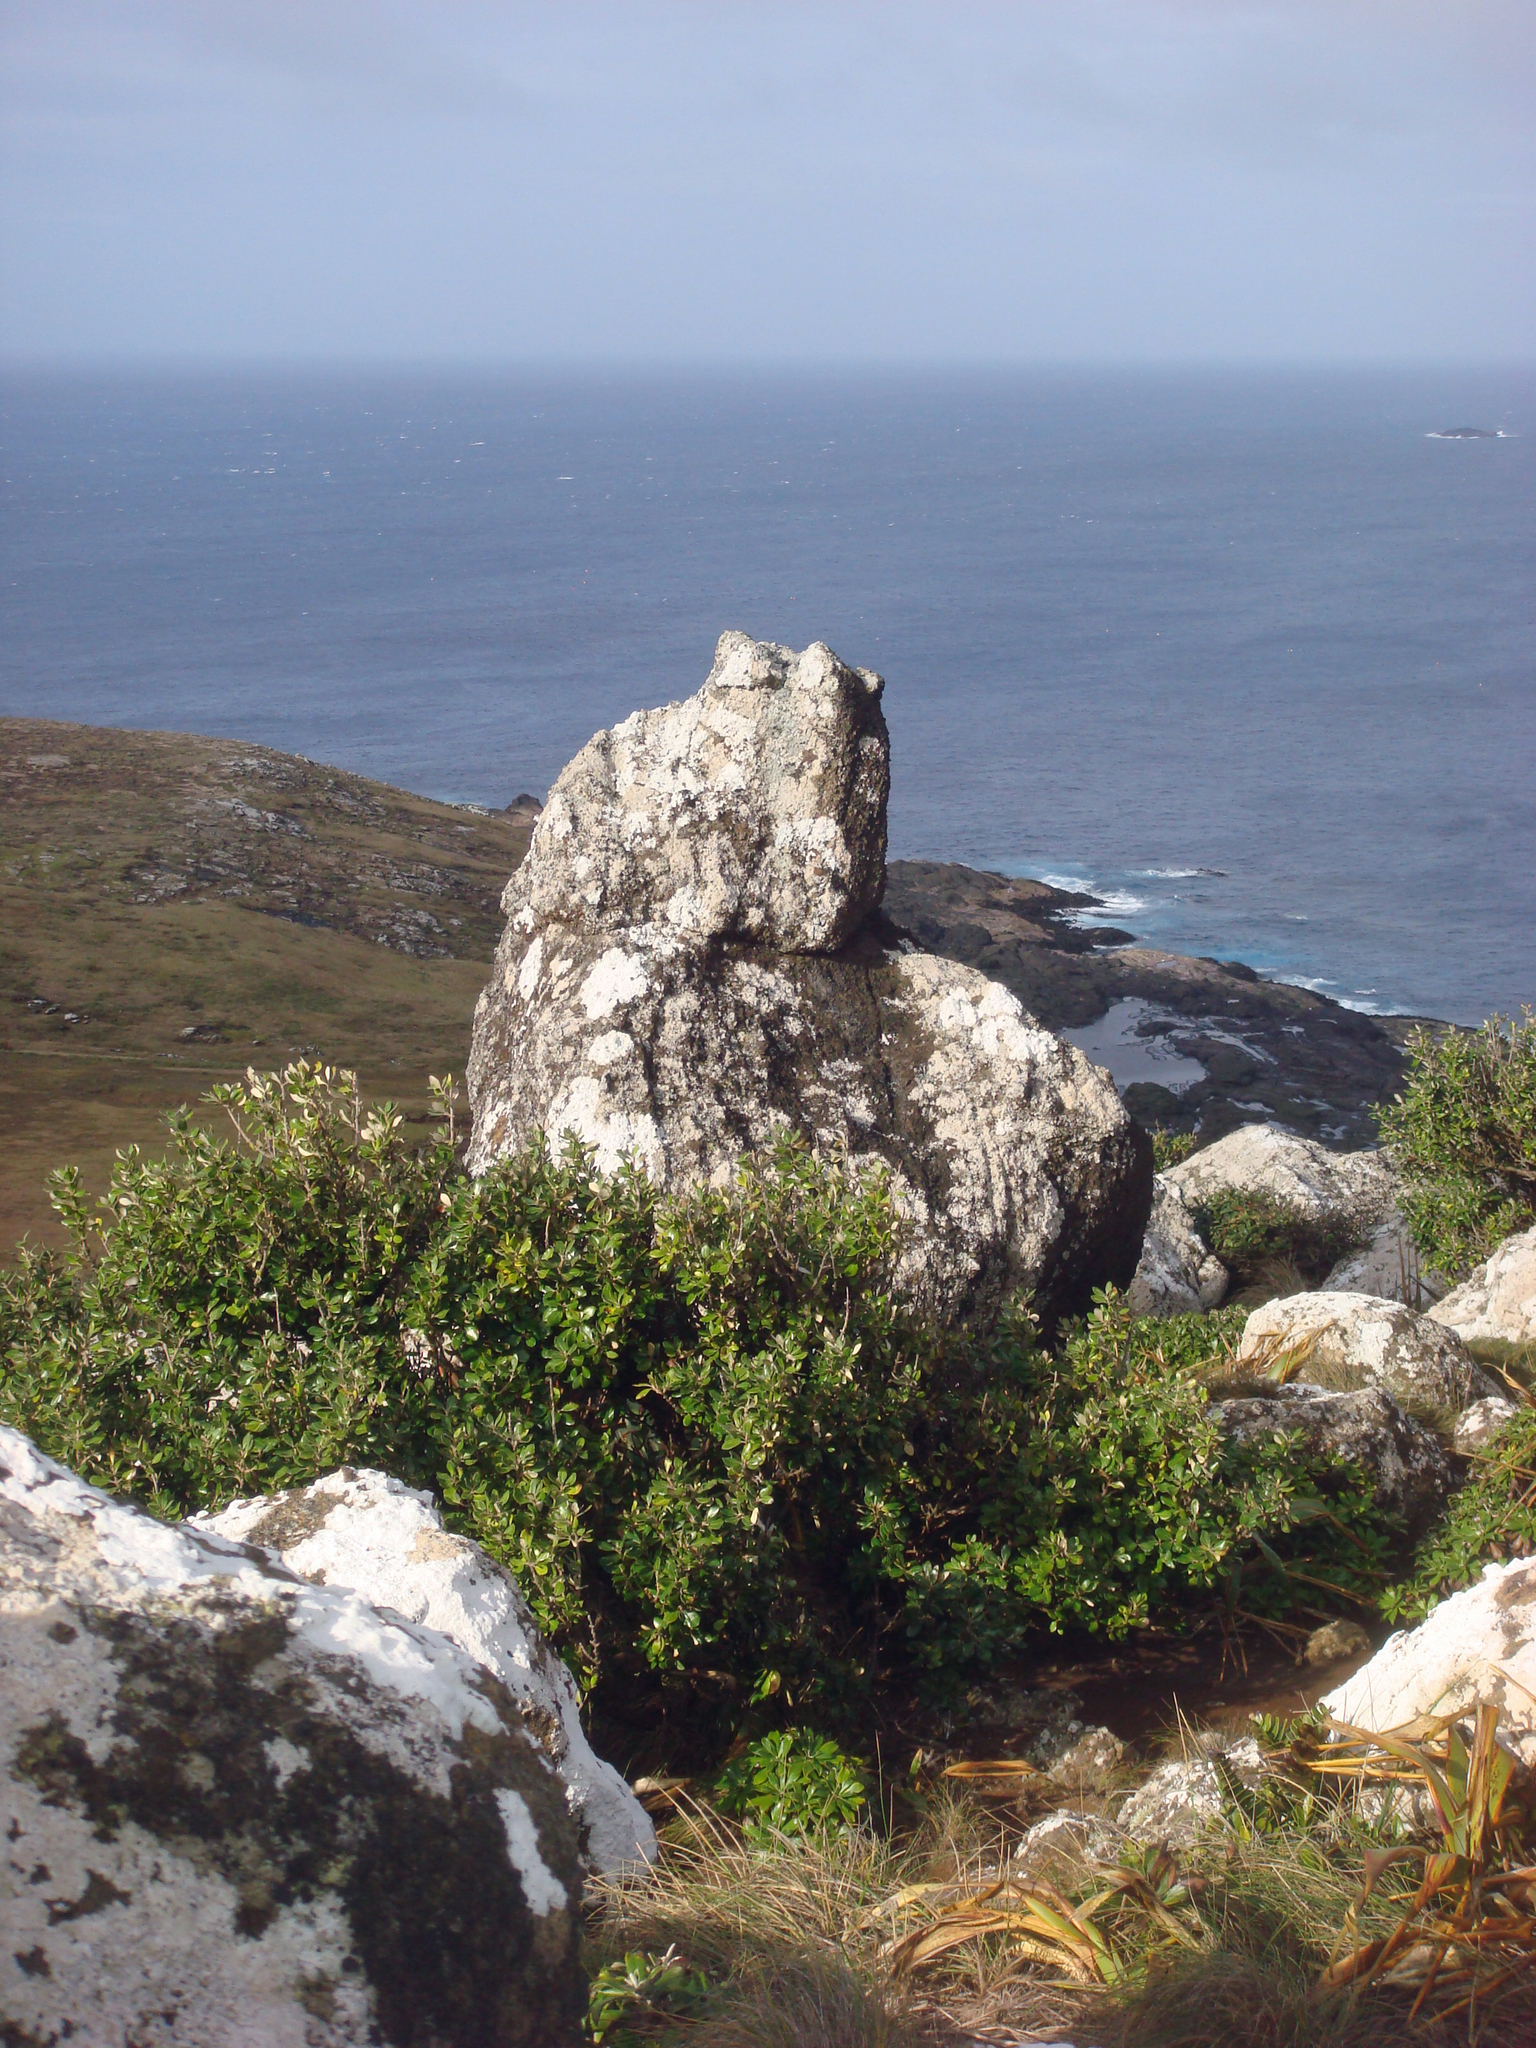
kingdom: Plantae
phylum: Tracheophyta
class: Magnoliopsida
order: Asterales
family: Asteraceae
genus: Olearia
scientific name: Olearia traversiorum
